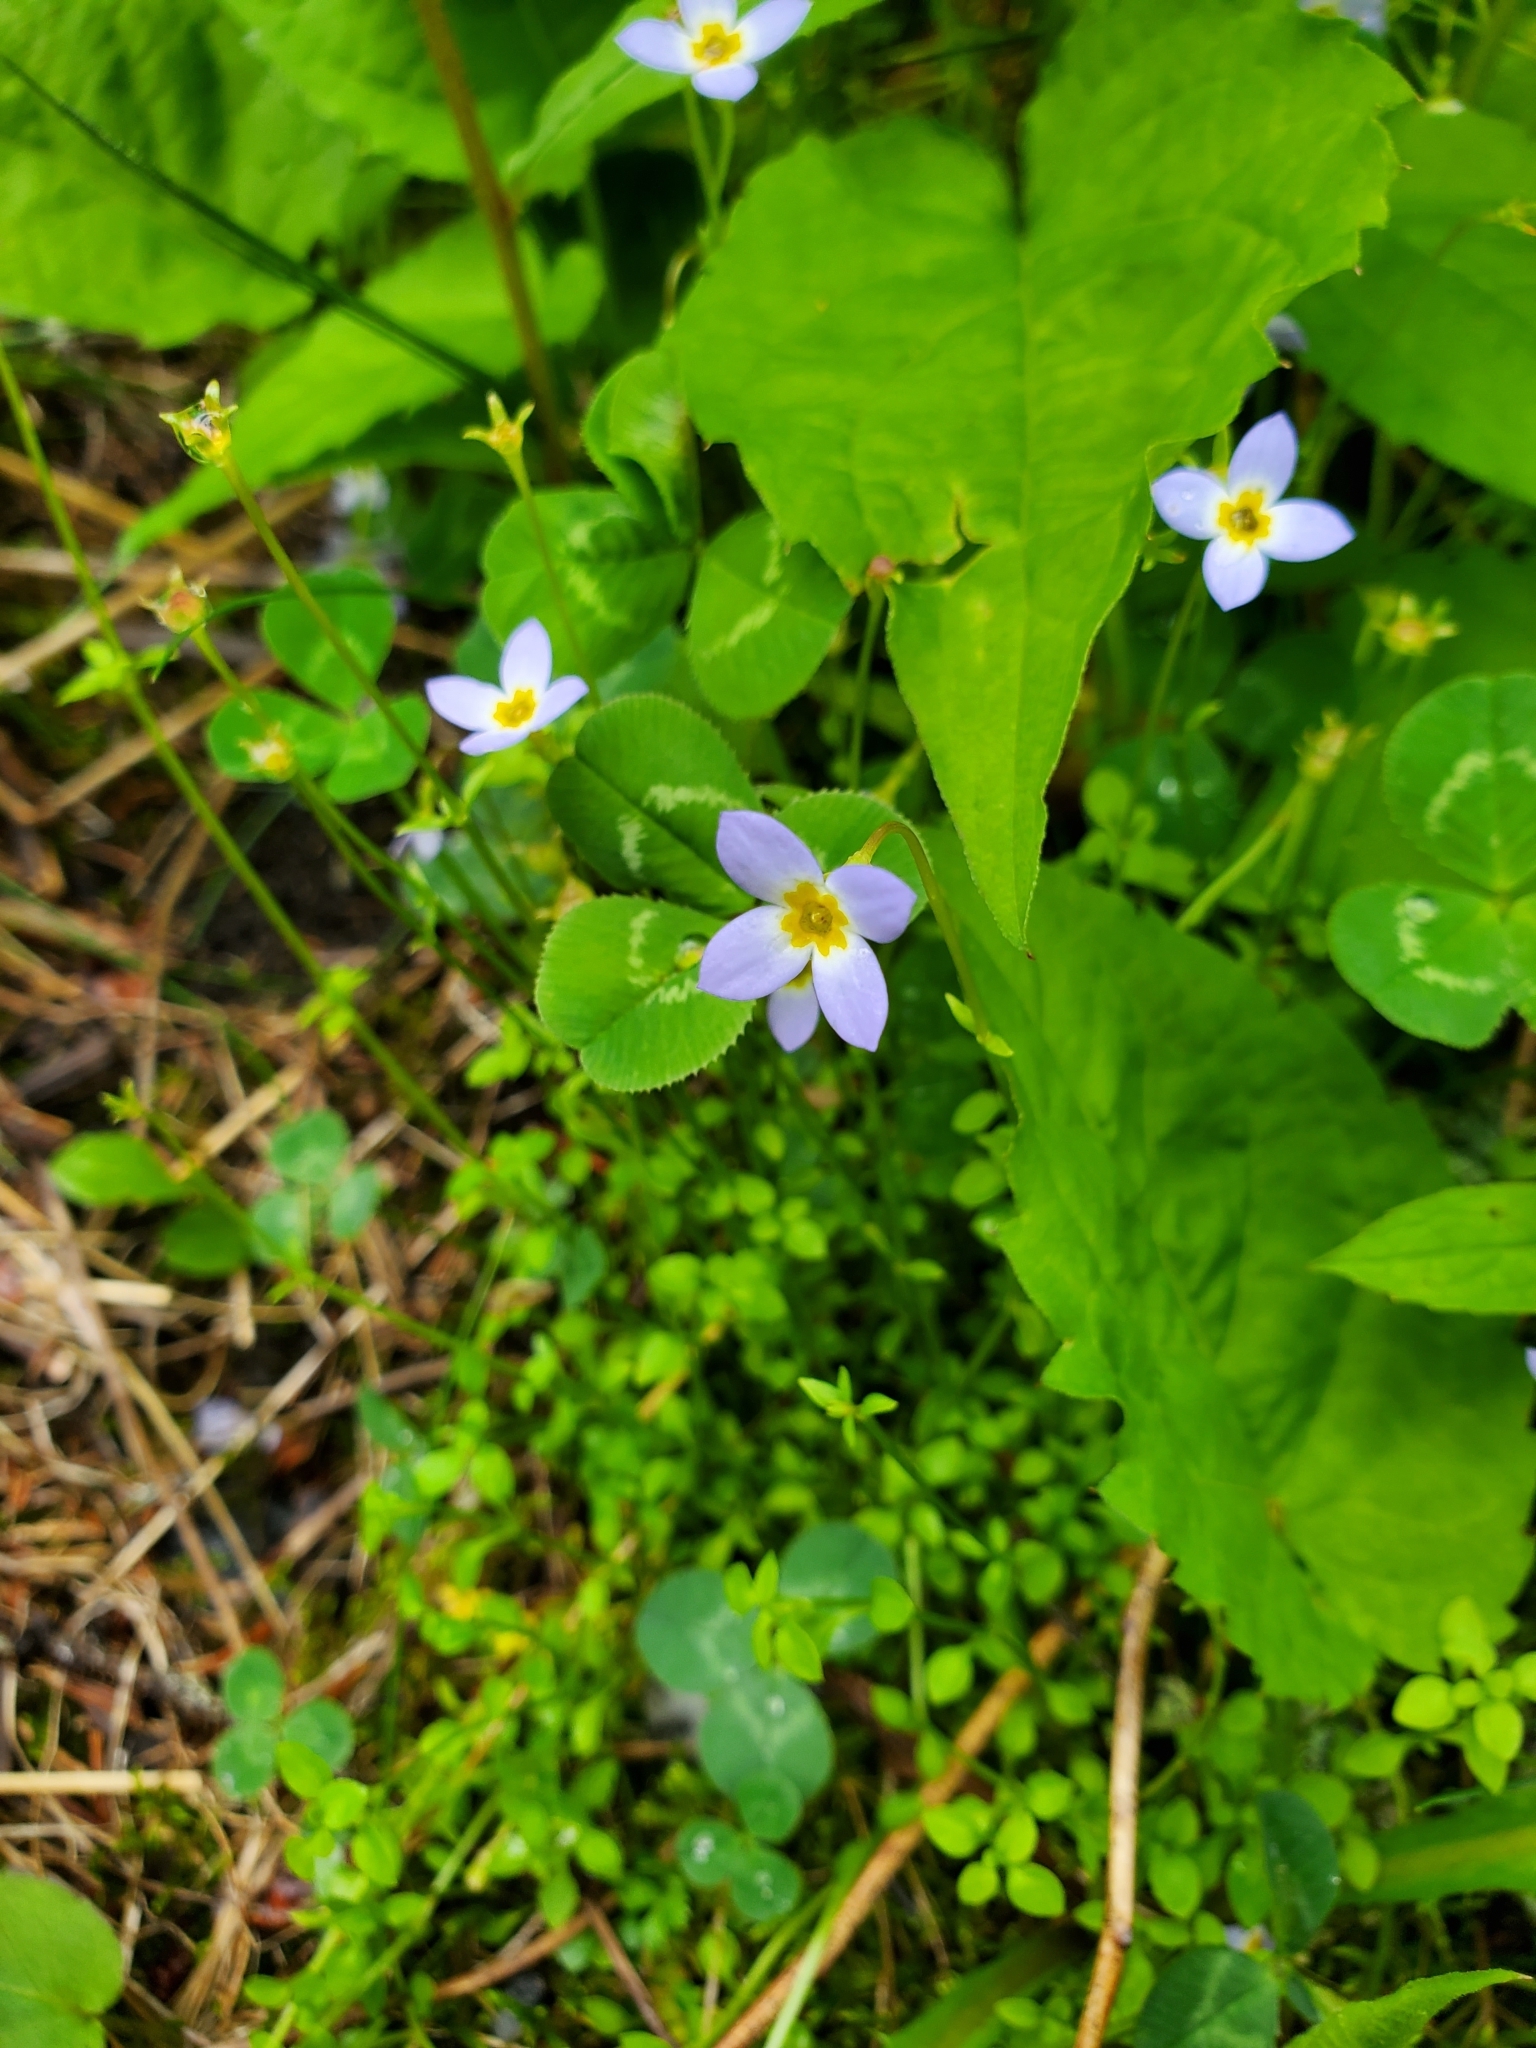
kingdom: Plantae
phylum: Tracheophyta
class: Magnoliopsida
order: Gentianales
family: Rubiaceae
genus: Houstonia
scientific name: Houstonia serpyllifolia
